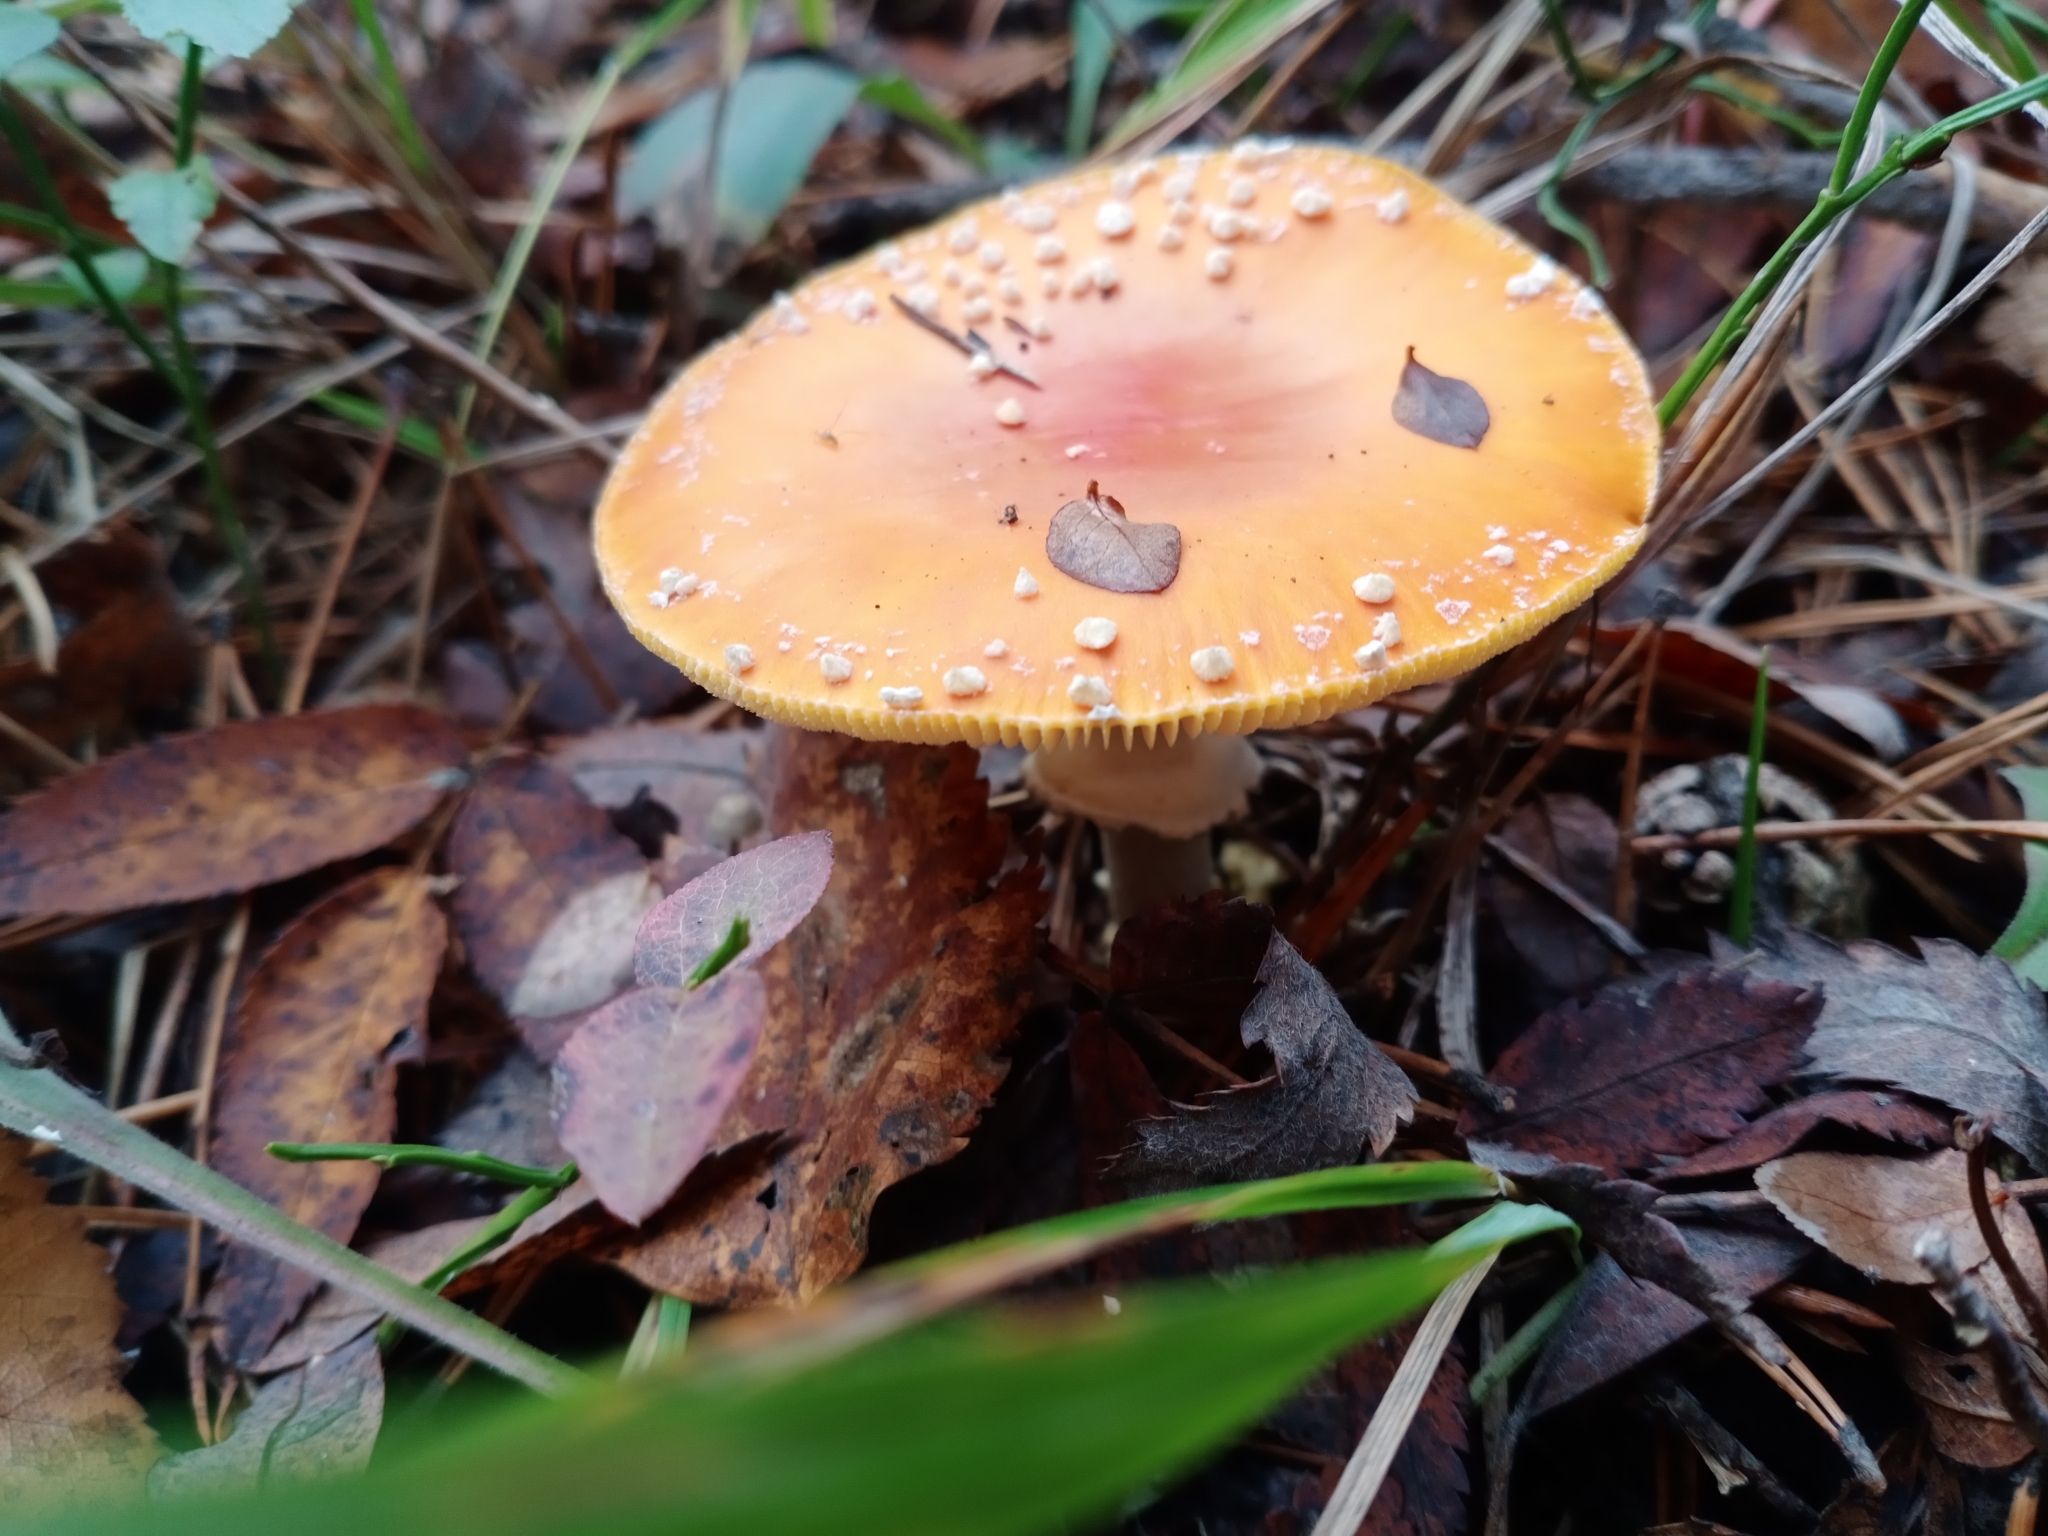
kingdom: Fungi
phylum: Basidiomycota
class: Agaricomycetes
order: Agaricales
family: Amanitaceae
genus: Amanita
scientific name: Amanita muscaria
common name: Fly agaric
